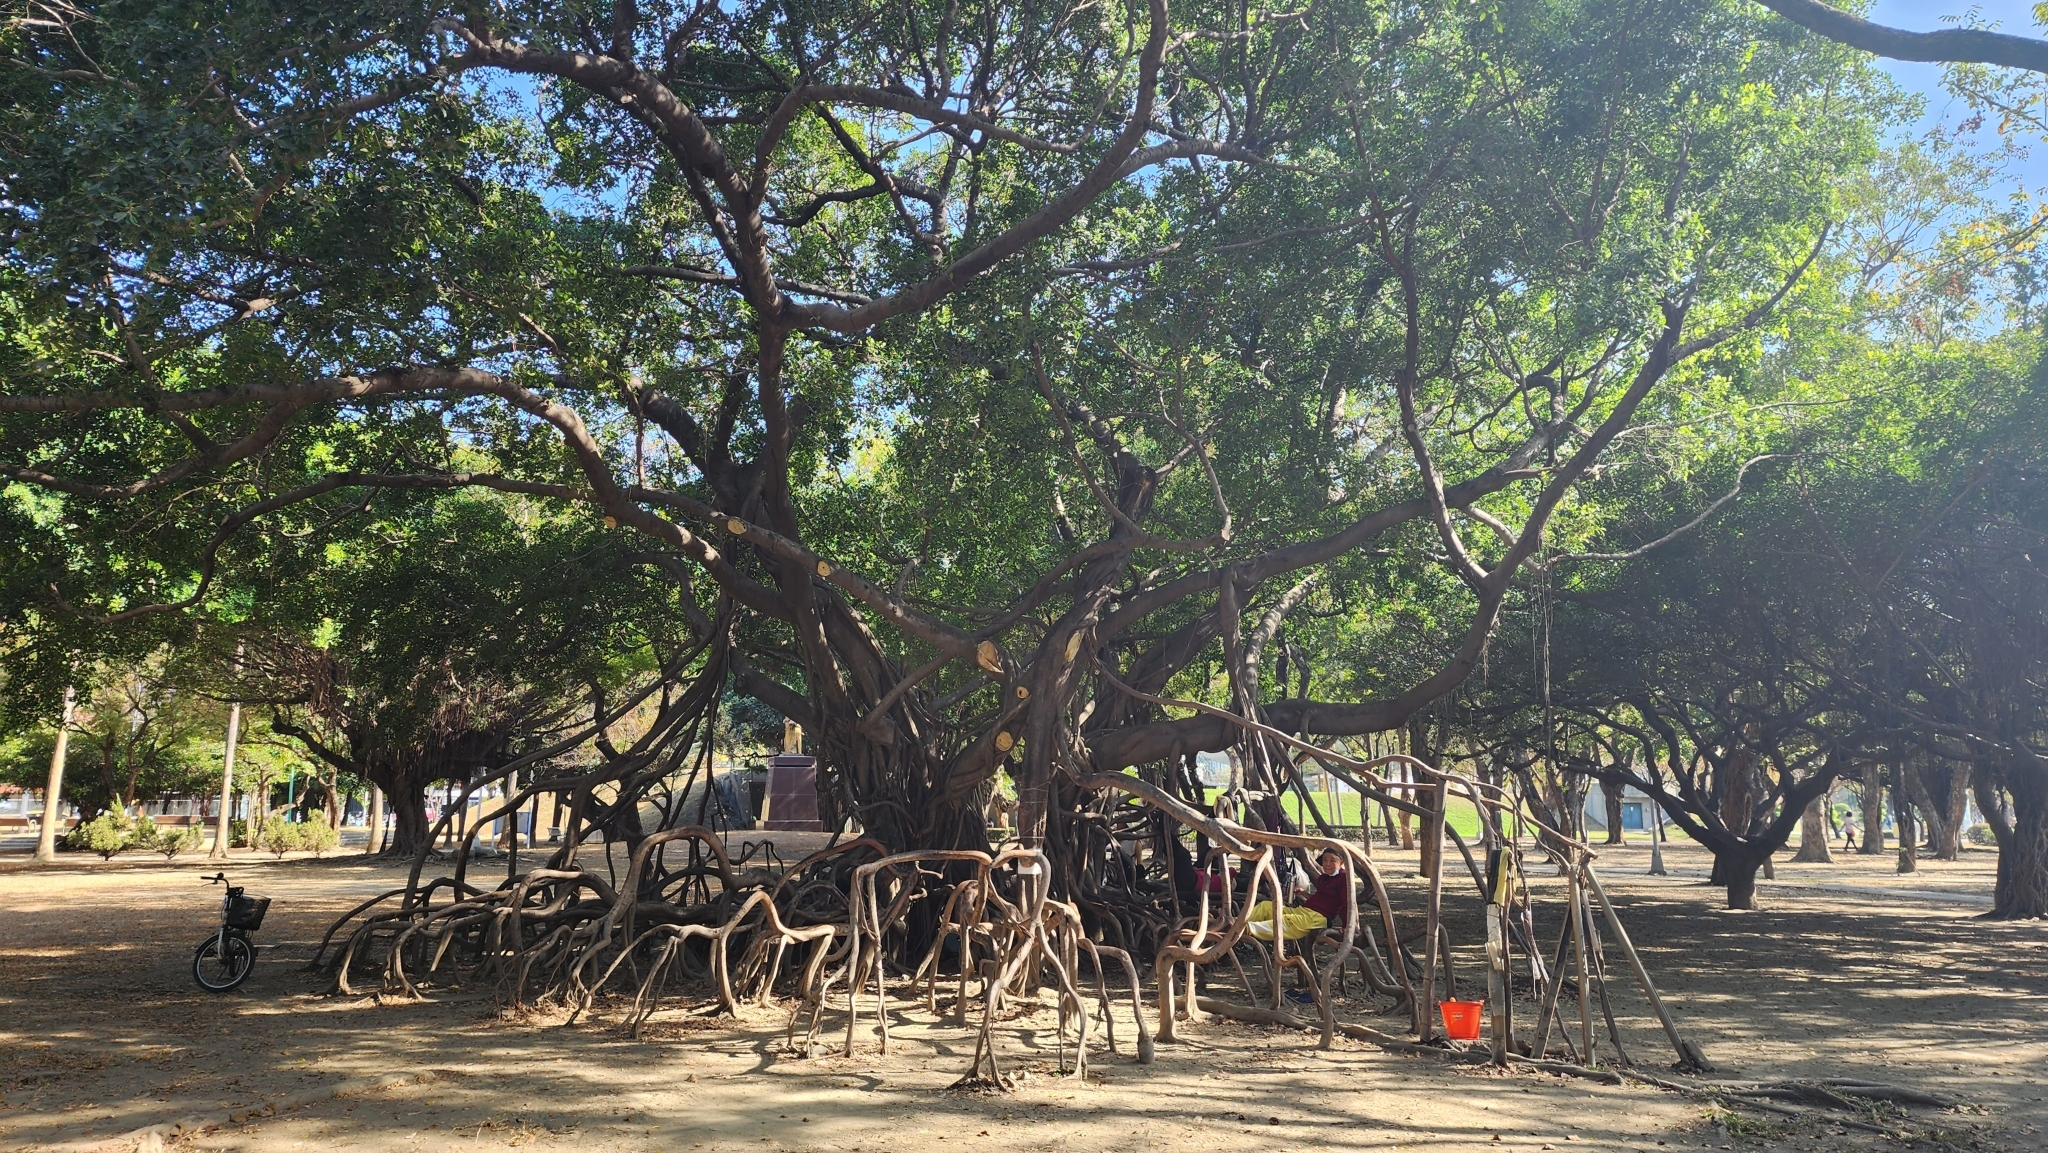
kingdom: Plantae
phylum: Tracheophyta
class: Magnoliopsida
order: Rosales
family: Moraceae
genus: Ficus
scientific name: Ficus microcarpa
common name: Chinese banyan
